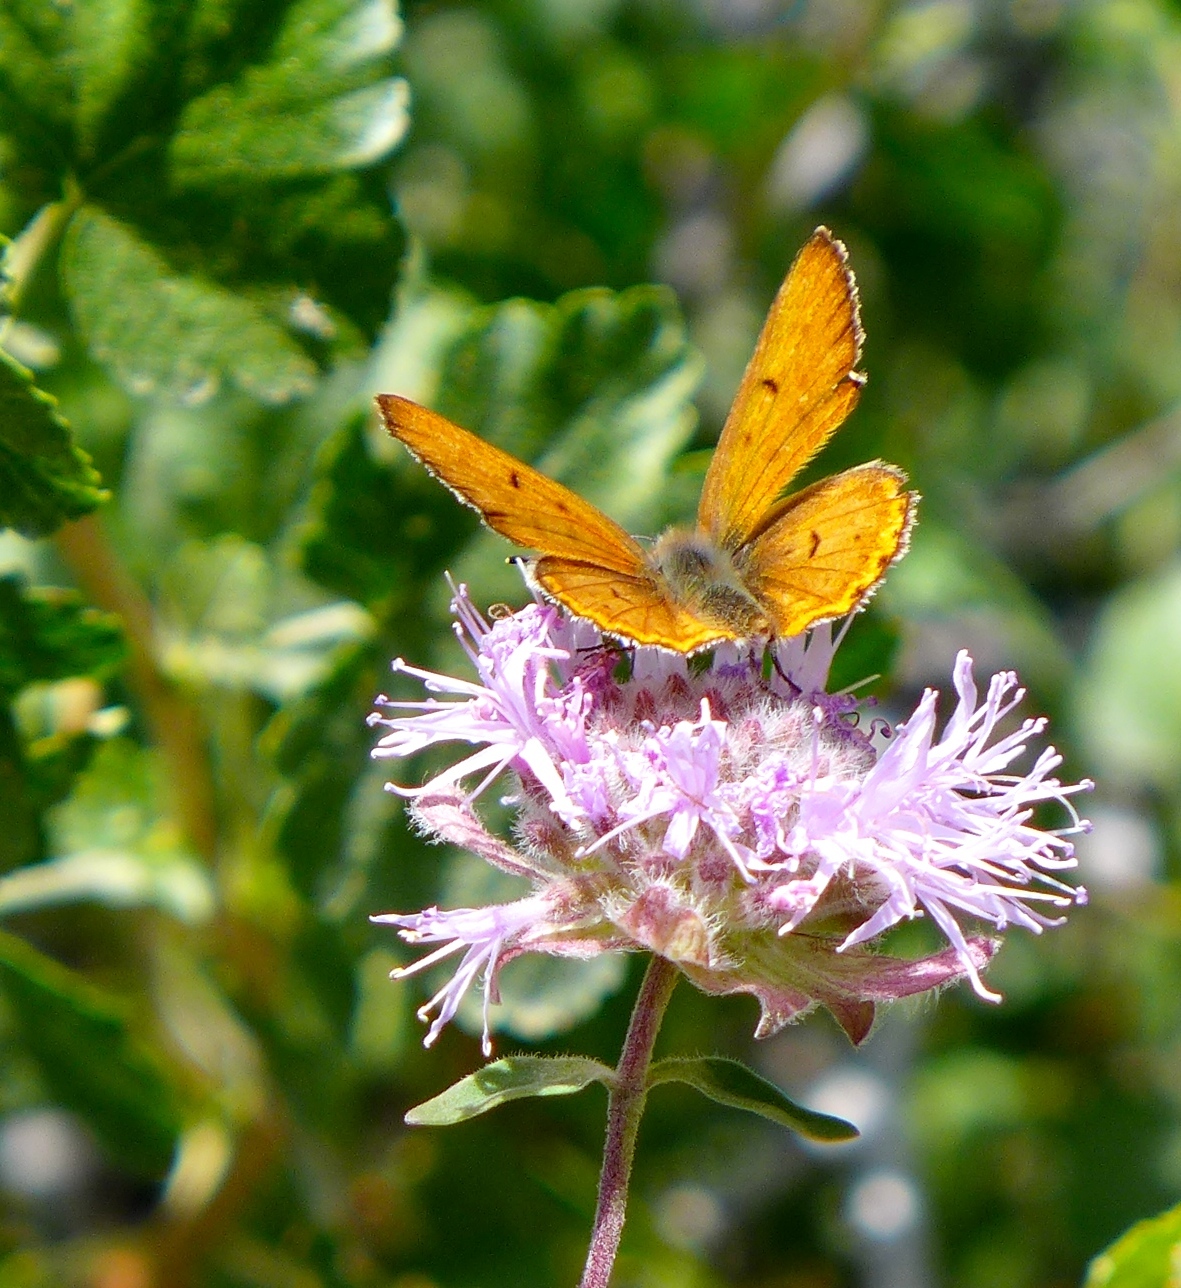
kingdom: Animalia
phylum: Arthropoda
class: Insecta
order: Lepidoptera
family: Lycaenidae
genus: Tharsalea
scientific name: Tharsalea rubidus
